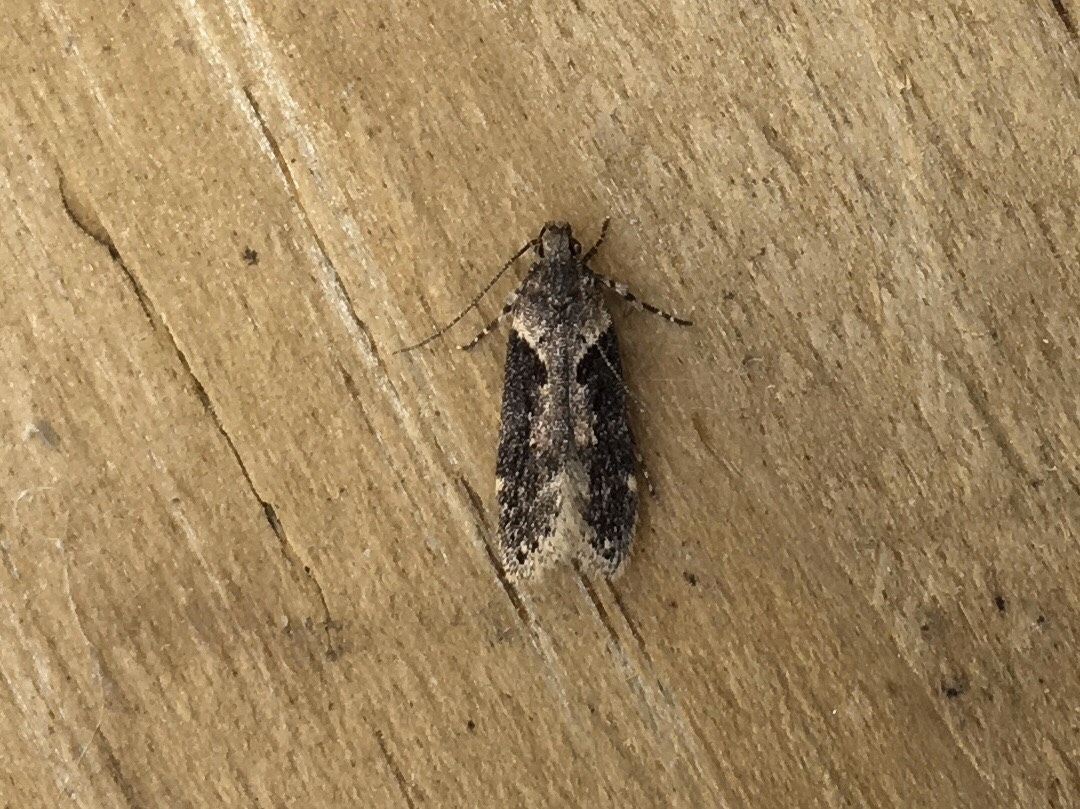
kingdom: Animalia
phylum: Arthropoda
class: Insecta
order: Lepidoptera
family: Gelechiidae
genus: Chionodes
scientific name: Chionodes mediofuscella
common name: Black-smudged chionodes moth
